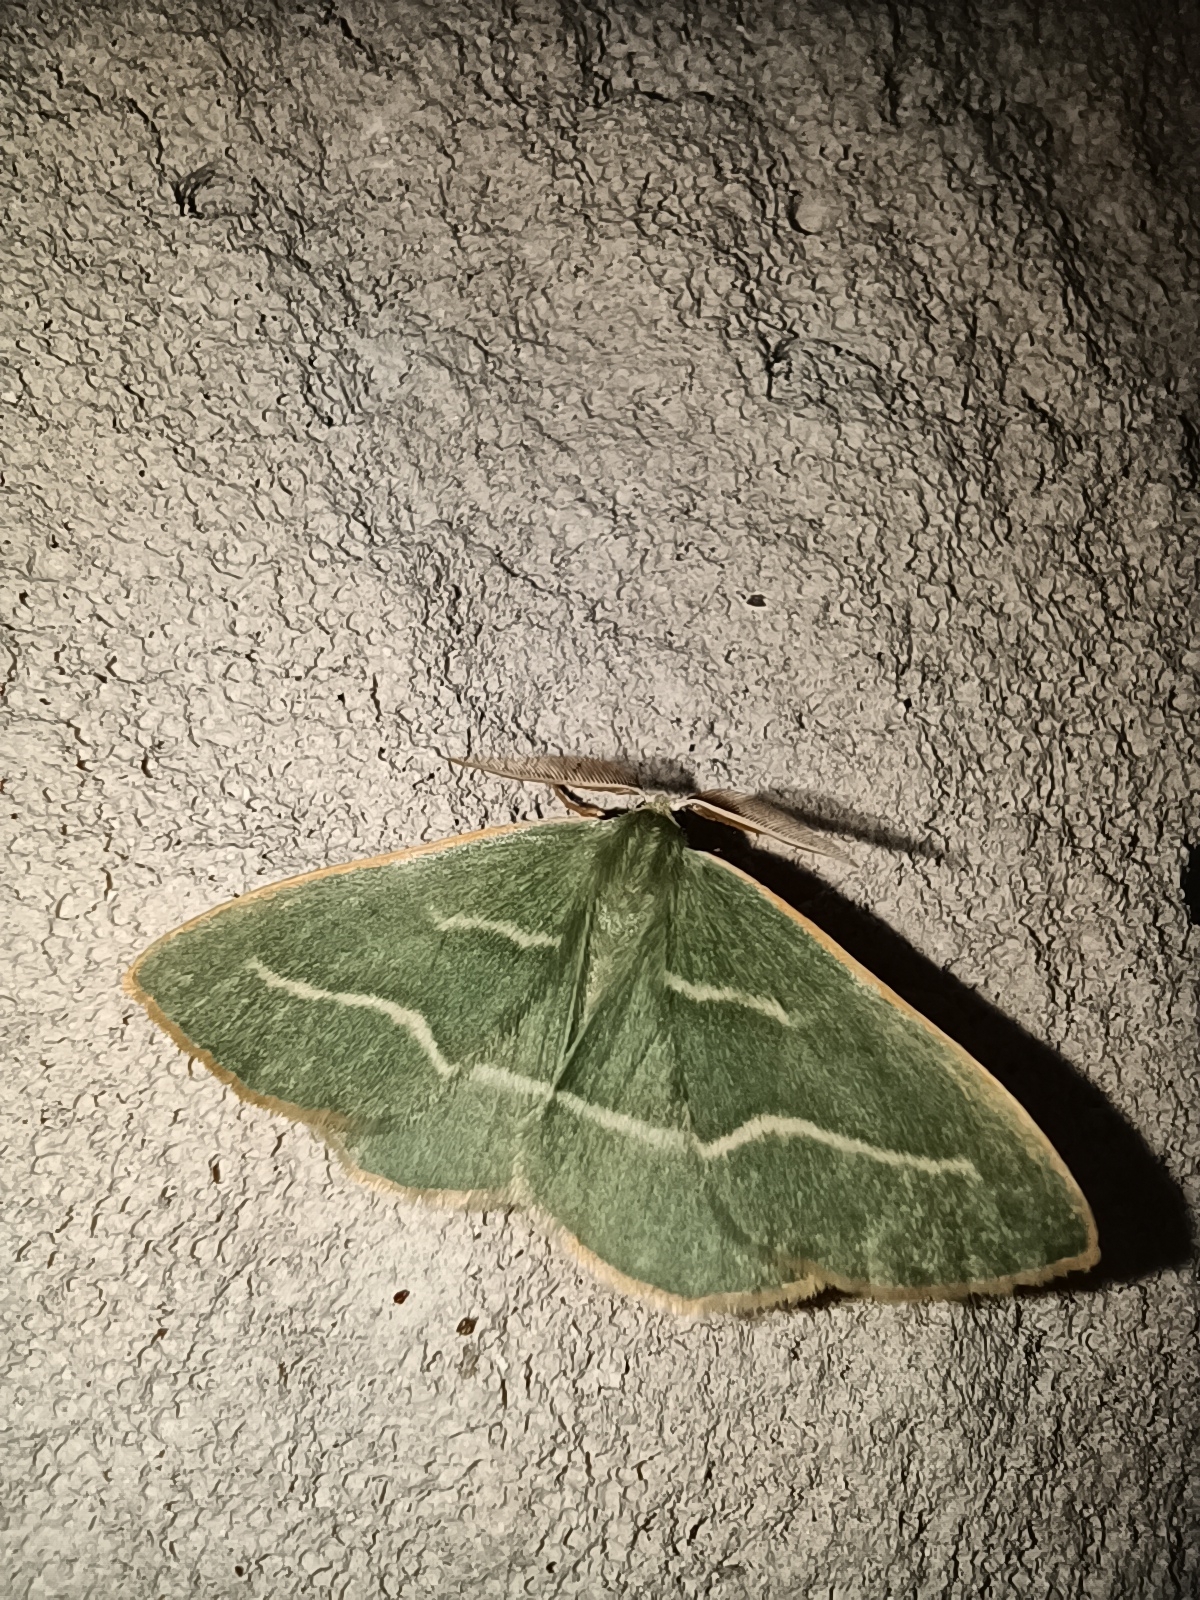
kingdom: Animalia
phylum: Arthropoda
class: Insecta
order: Lepidoptera
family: Geometridae
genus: Hylaea
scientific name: Hylaea fasciaria
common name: Barred red
